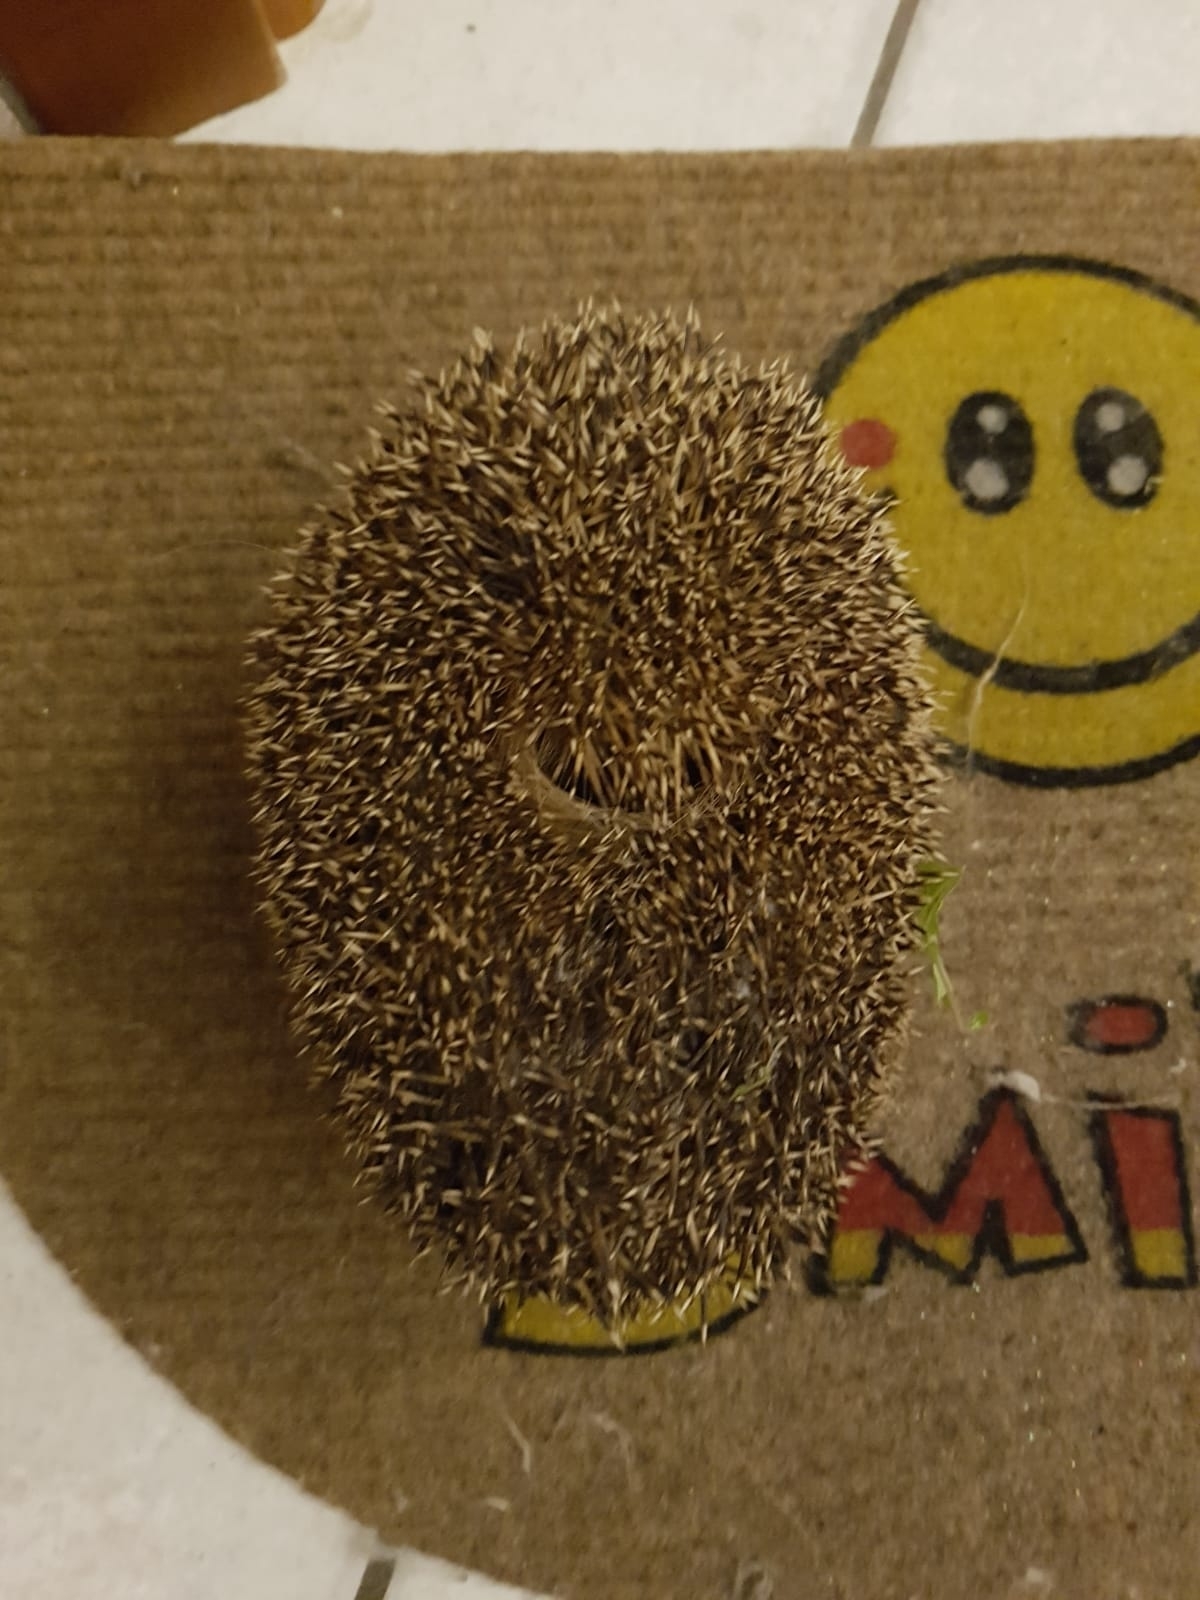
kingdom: Animalia
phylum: Chordata
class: Mammalia
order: Erinaceomorpha
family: Erinaceidae
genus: Erinaceus
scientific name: Erinaceus europaeus
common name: West european hedgehog
